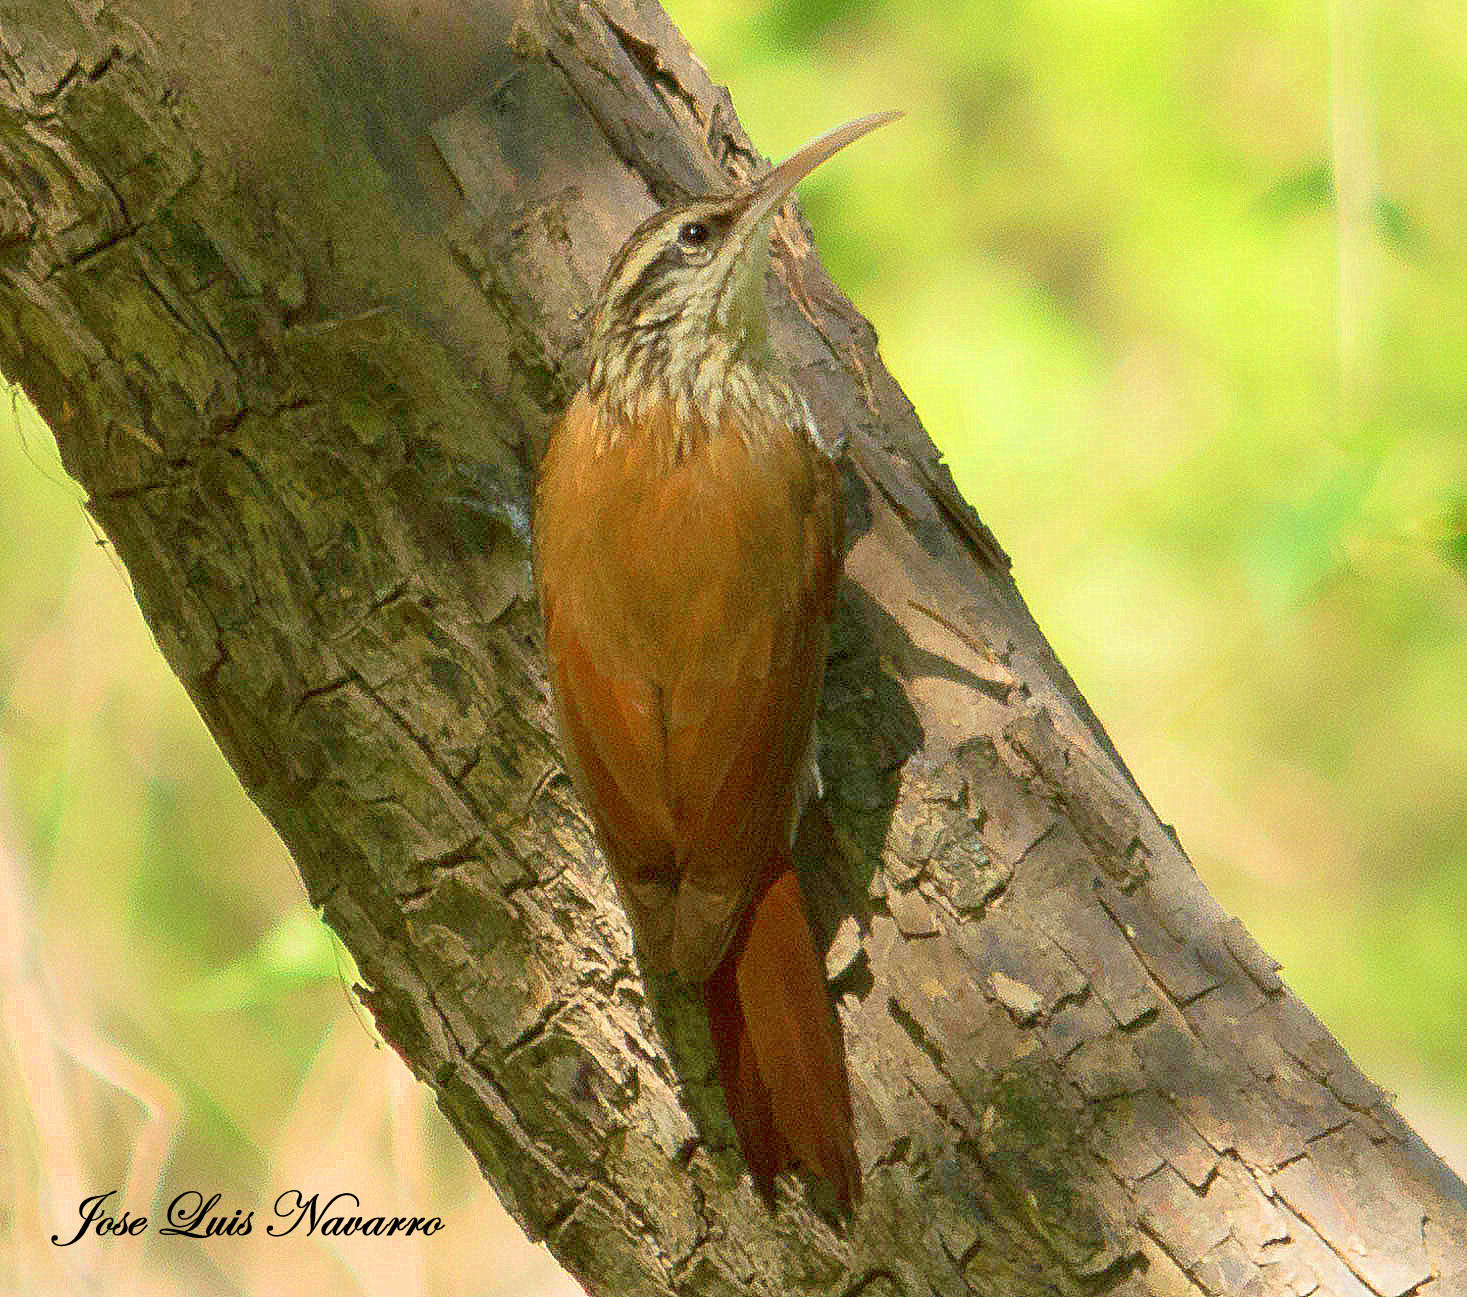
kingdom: Animalia
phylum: Chordata
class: Aves
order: Passeriformes
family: Furnariidae
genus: Lepidocolaptes
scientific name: Lepidocolaptes angustirostris
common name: Narrow-billed woodcreeper
